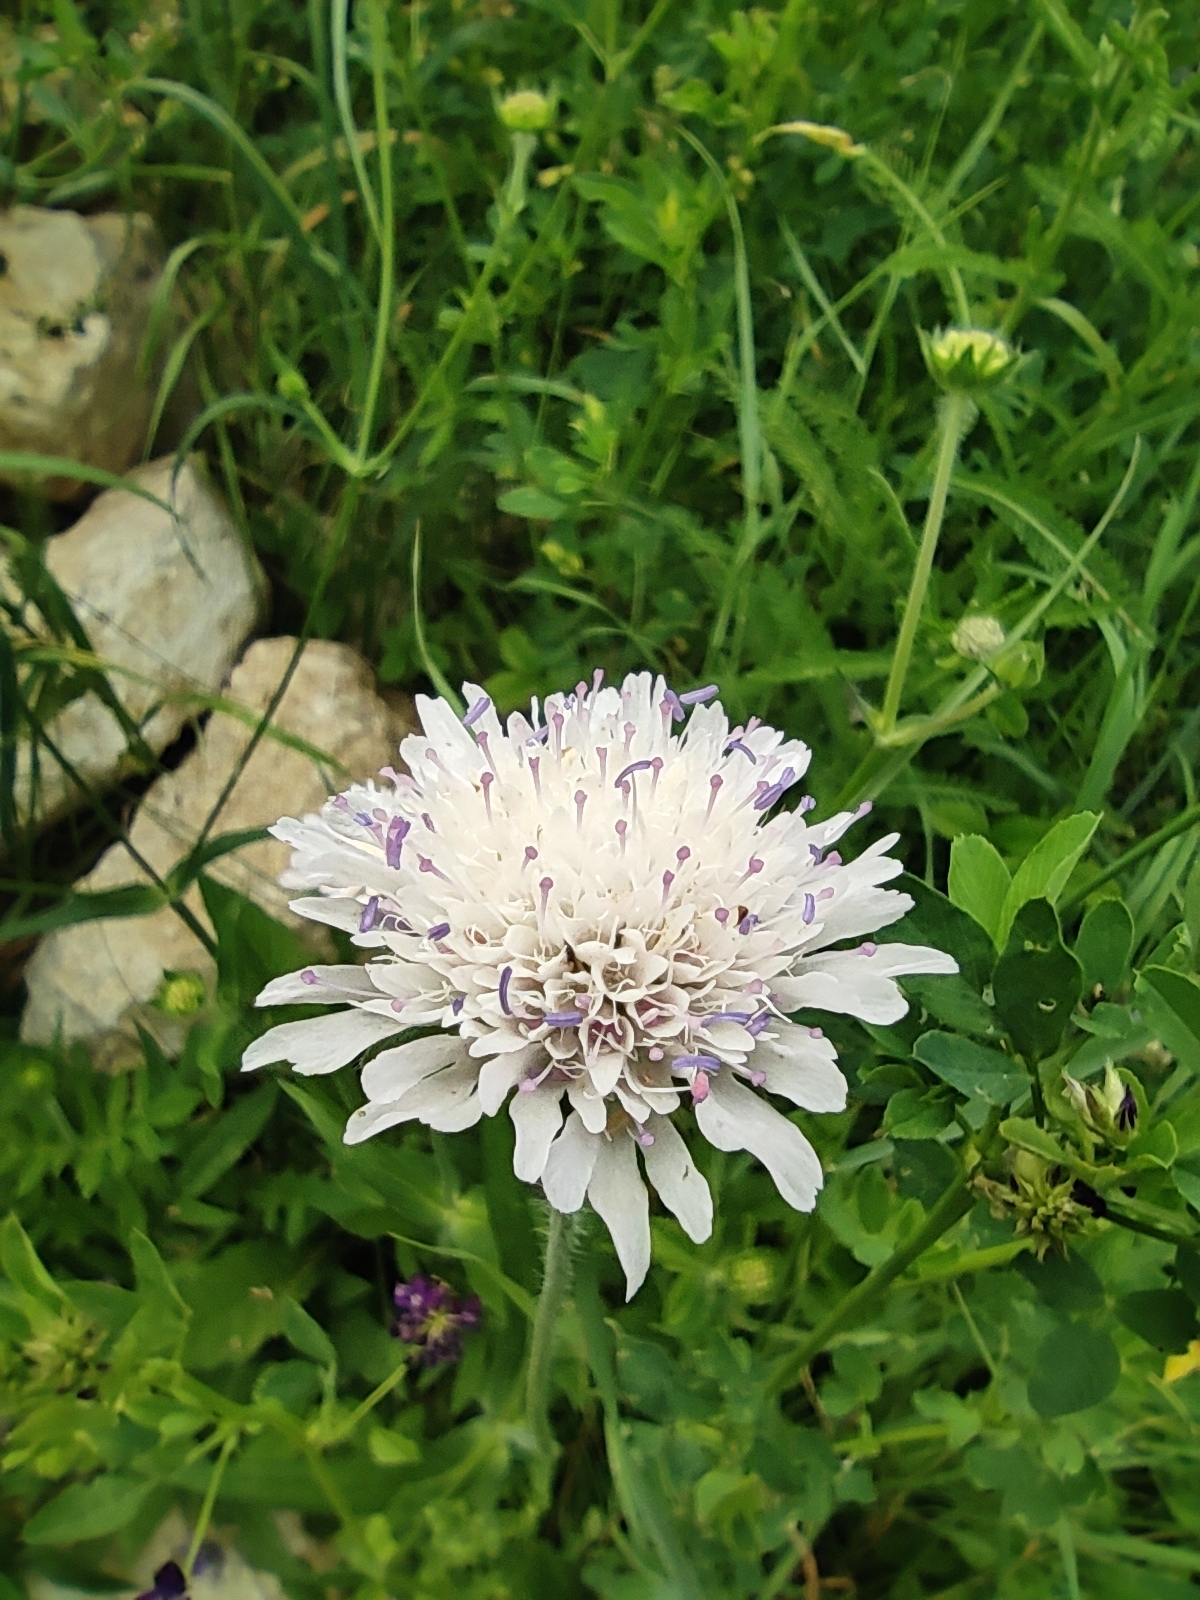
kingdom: Plantae
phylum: Tracheophyta
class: Magnoliopsida
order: Dipsacales
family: Caprifoliaceae
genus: Knautia
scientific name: Knautia arvensis
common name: Field scabiosa
